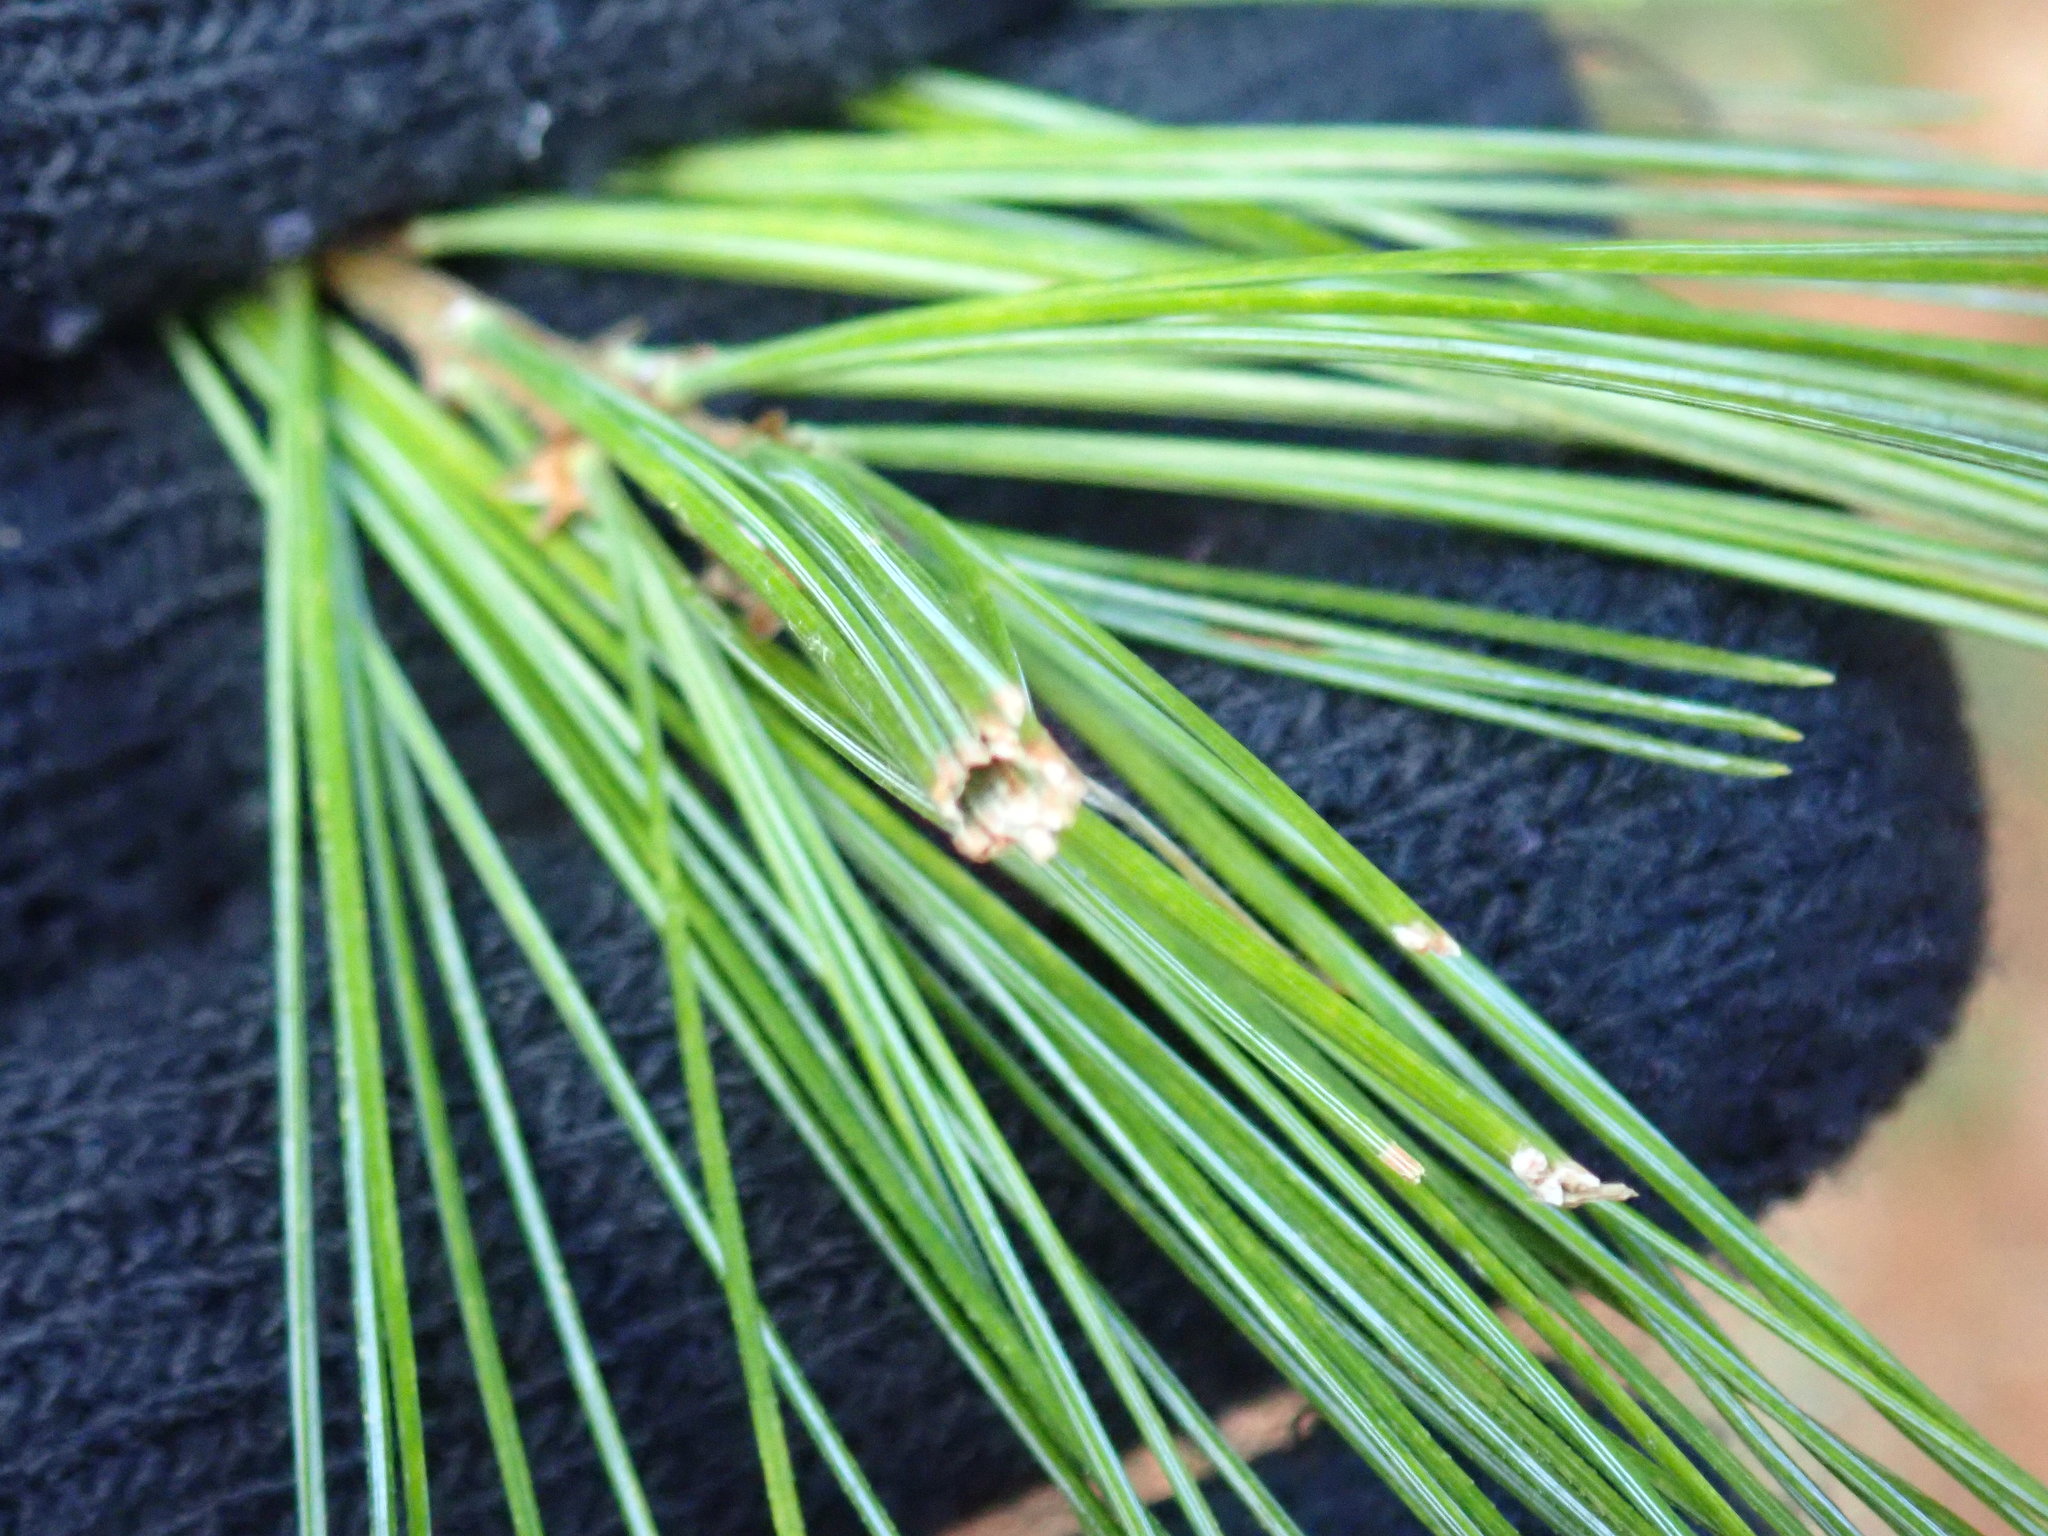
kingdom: Animalia
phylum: Arthropoda
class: Insecta
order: Lepidoptera
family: Tortricidae
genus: Argyrotaenia
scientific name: Argyrotaenia pinatubana
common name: Pine tube moth
